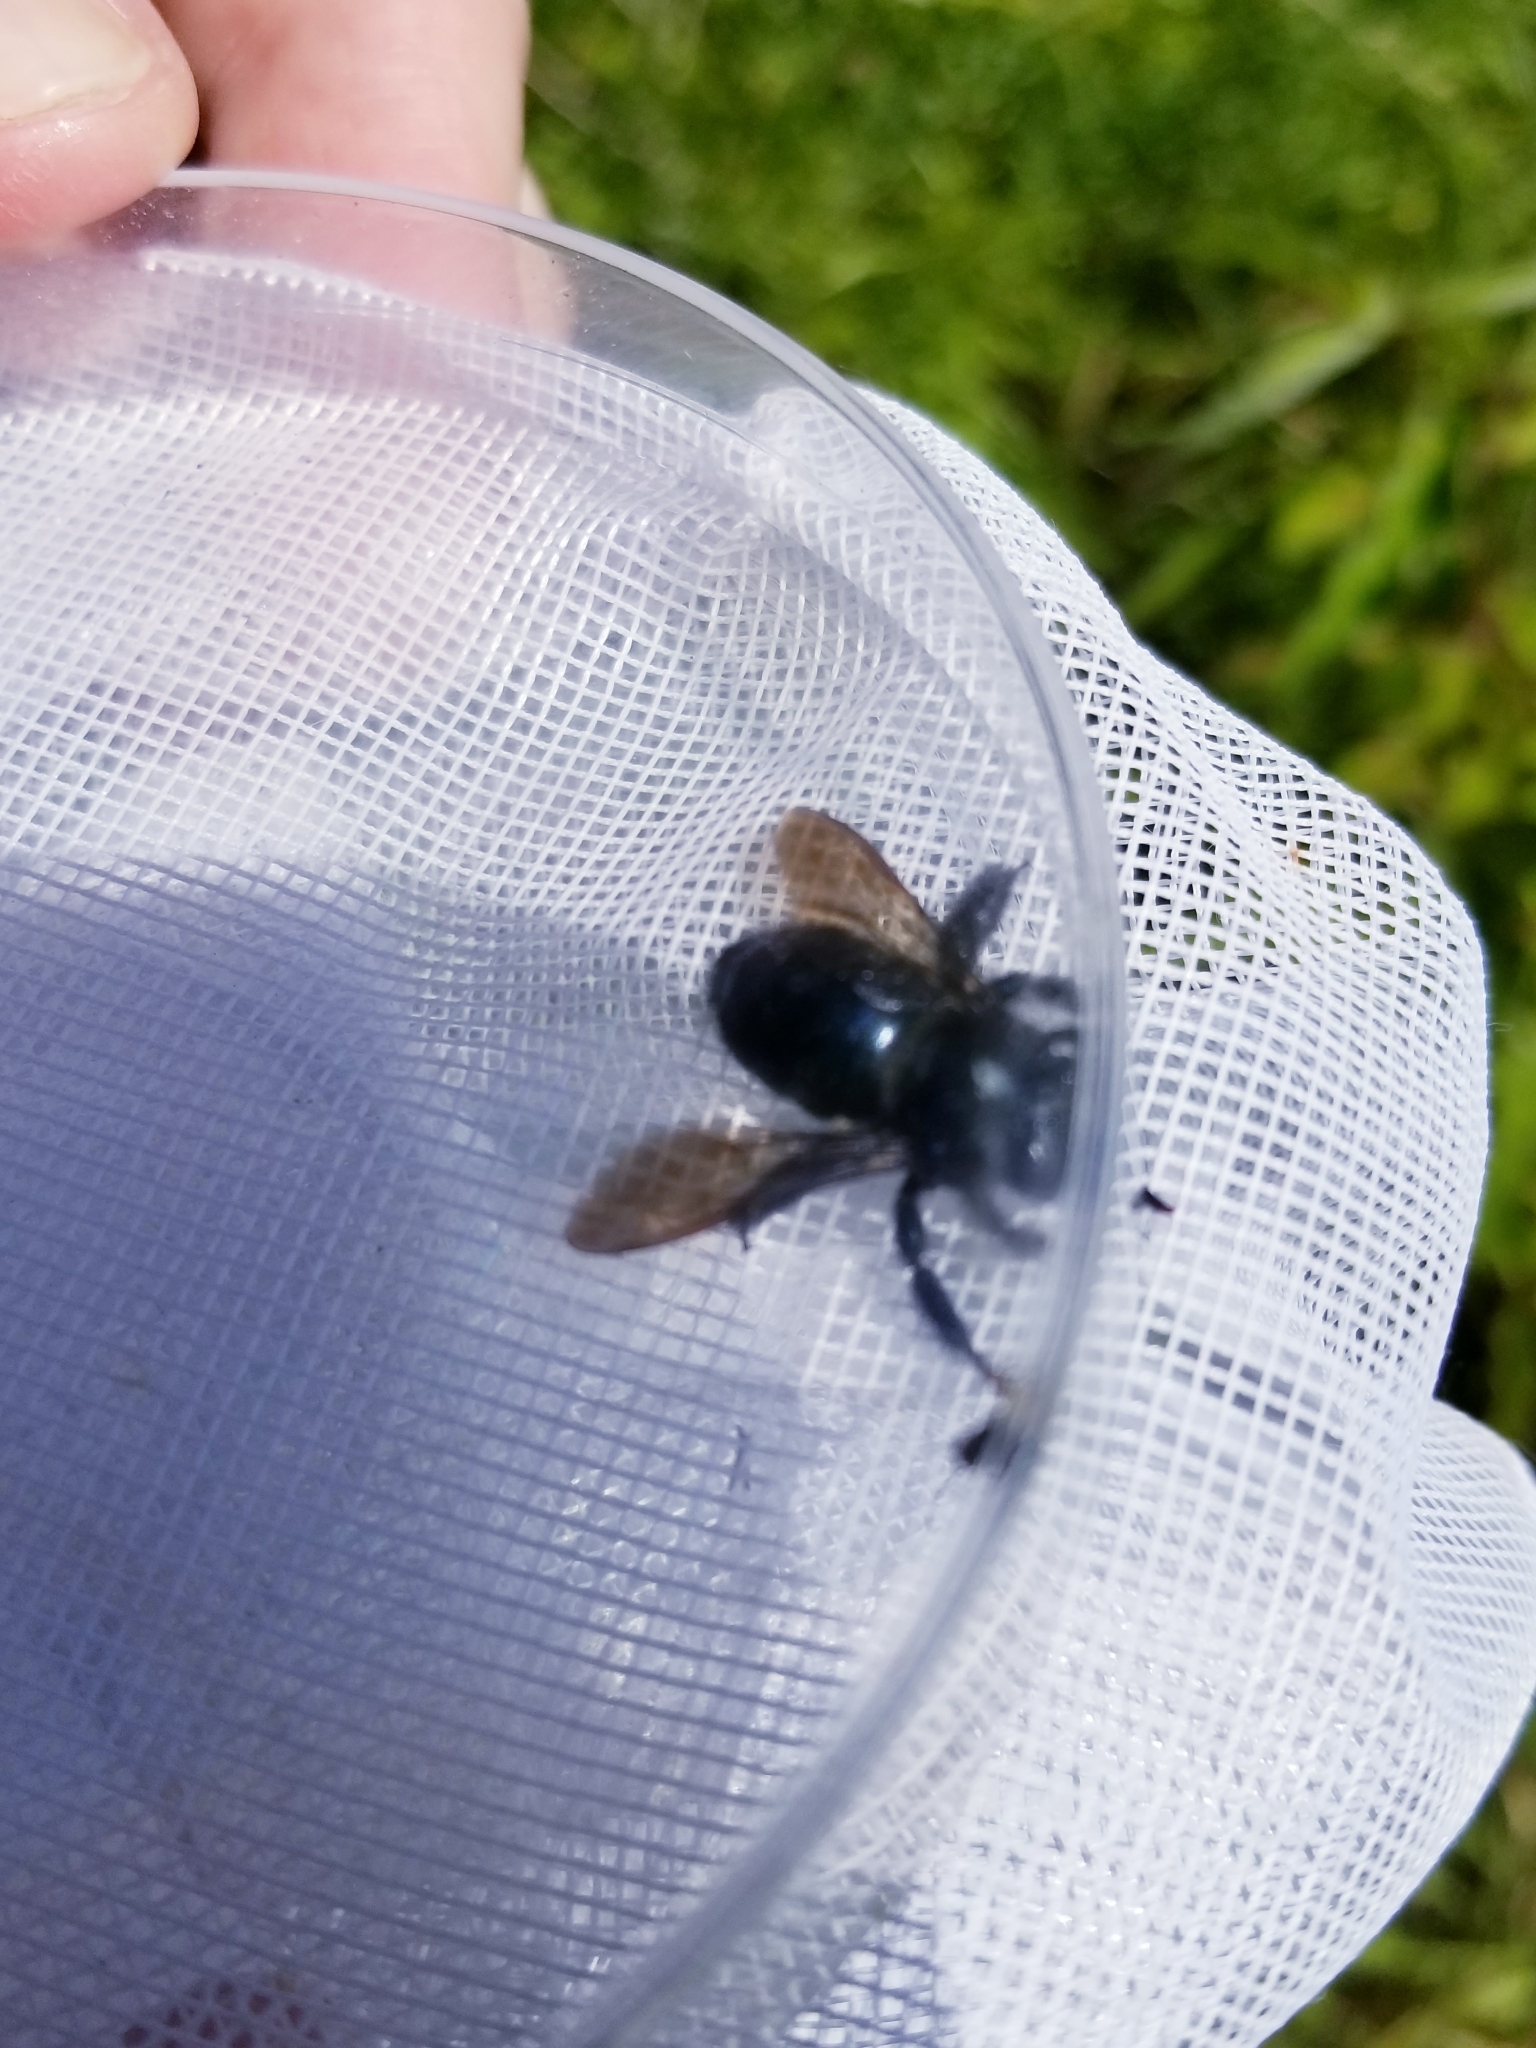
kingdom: Animalia
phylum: Arthropoda
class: Insecta
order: Hymenoptera
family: Apidae
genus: Xylocopa
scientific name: Xylocopa micans
